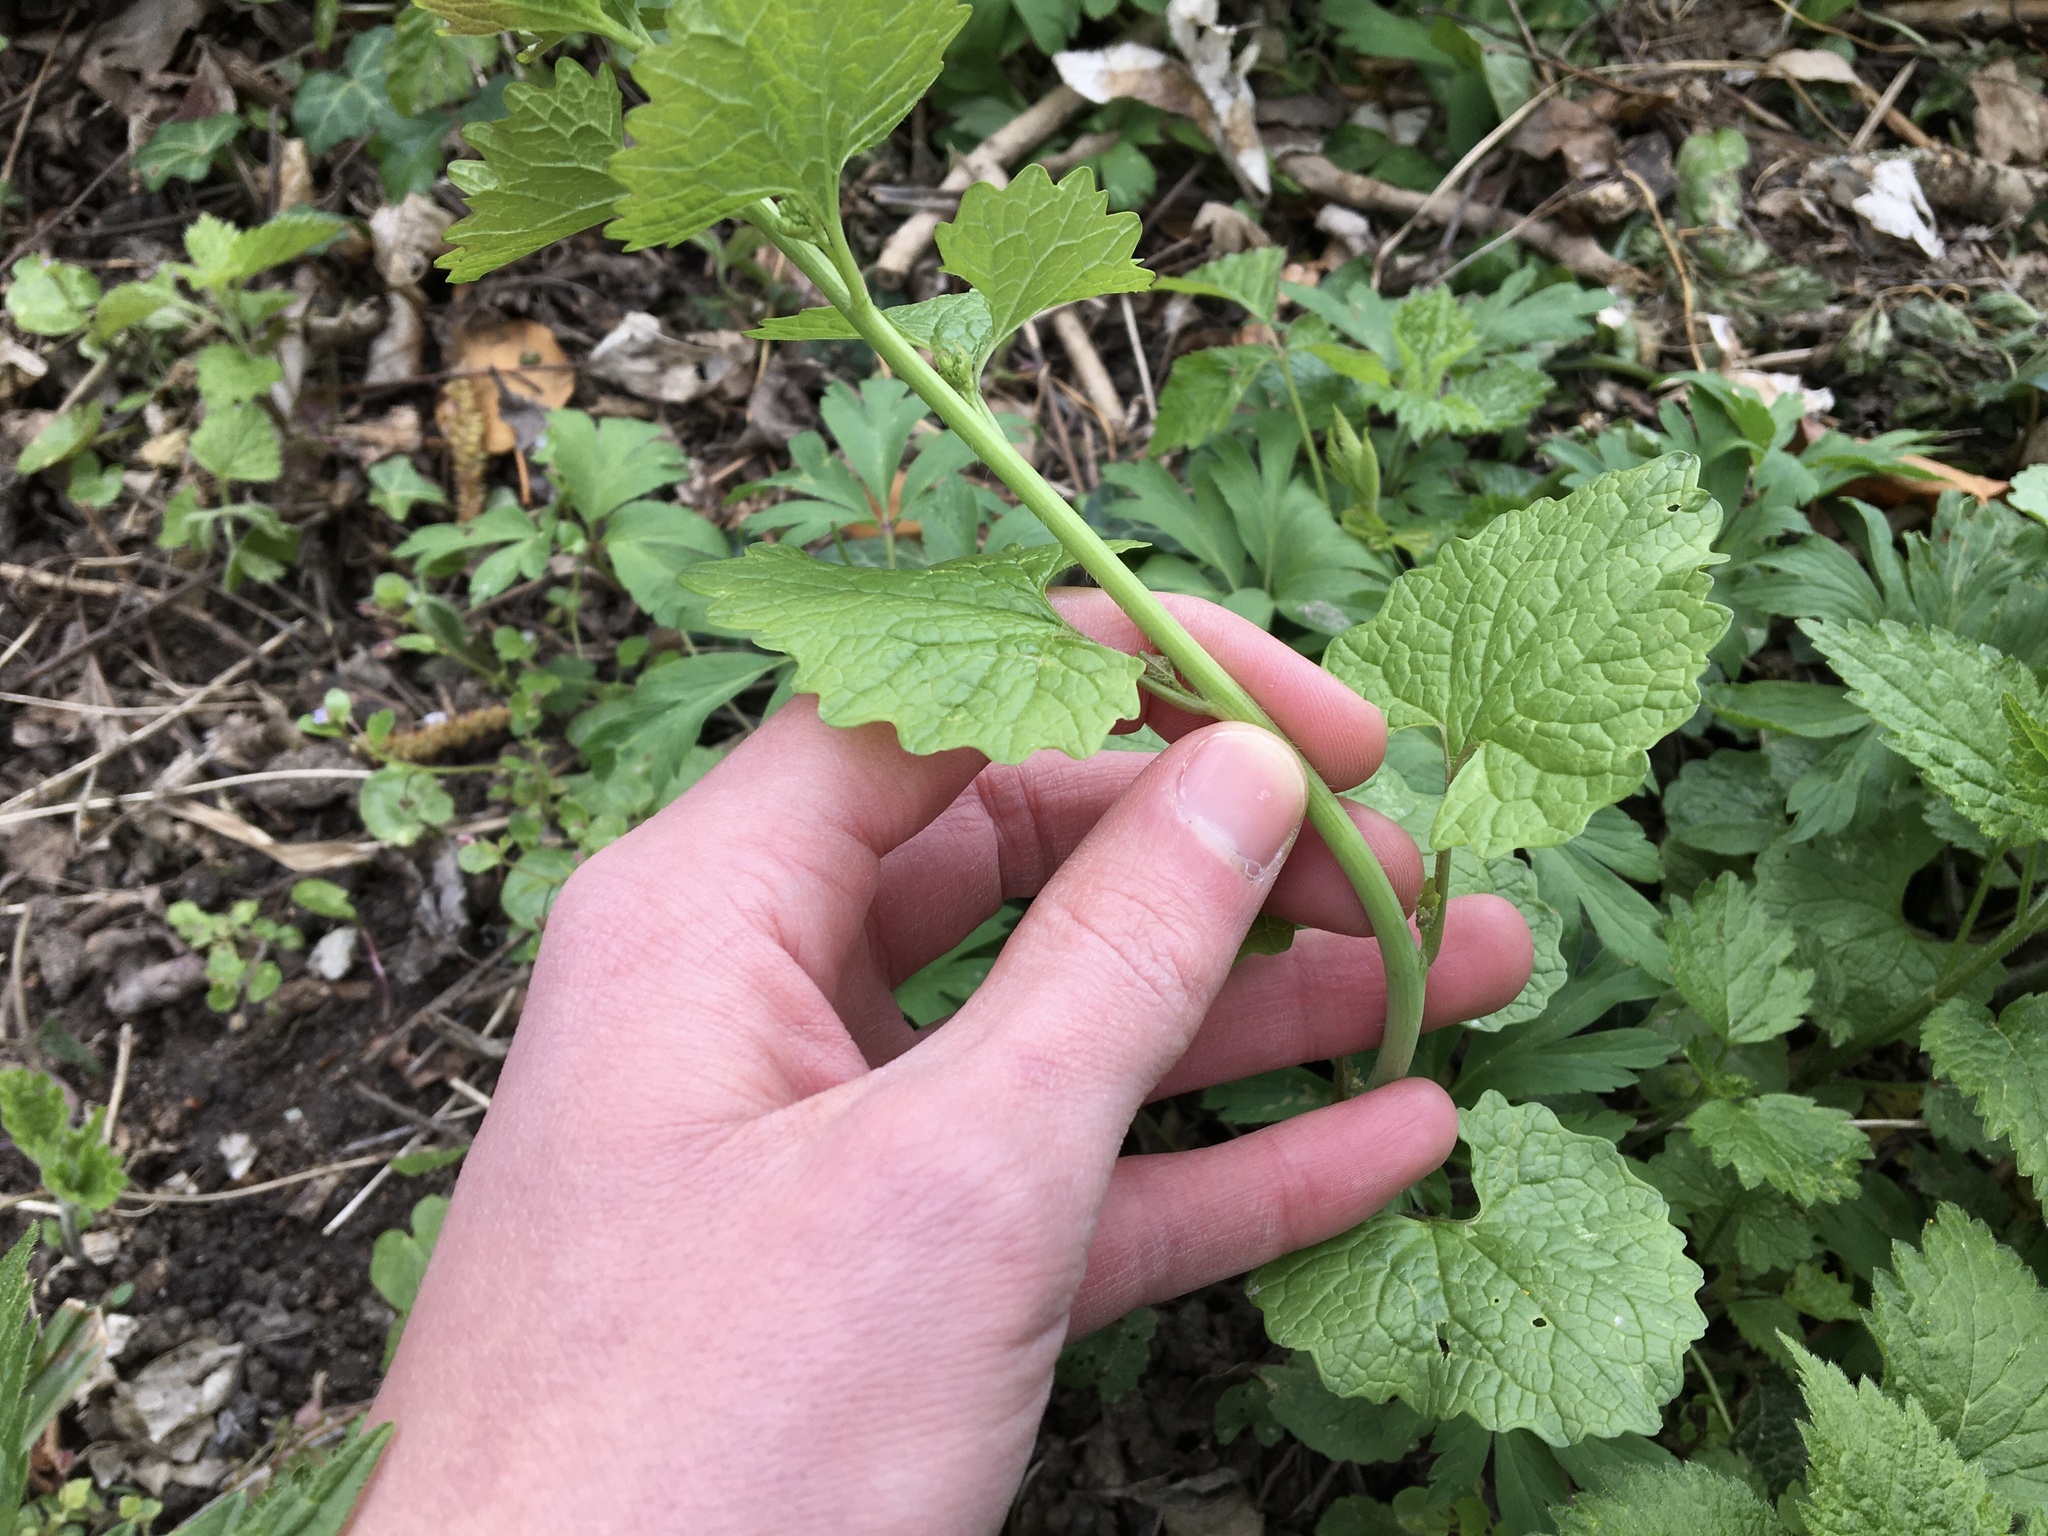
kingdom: Plantae
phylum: Tracheophyta
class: Magnoliopsida
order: Brassicales
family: Brassicaceae
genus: Alliaria
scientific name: Alliaria petiolata
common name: Garlic mustard
